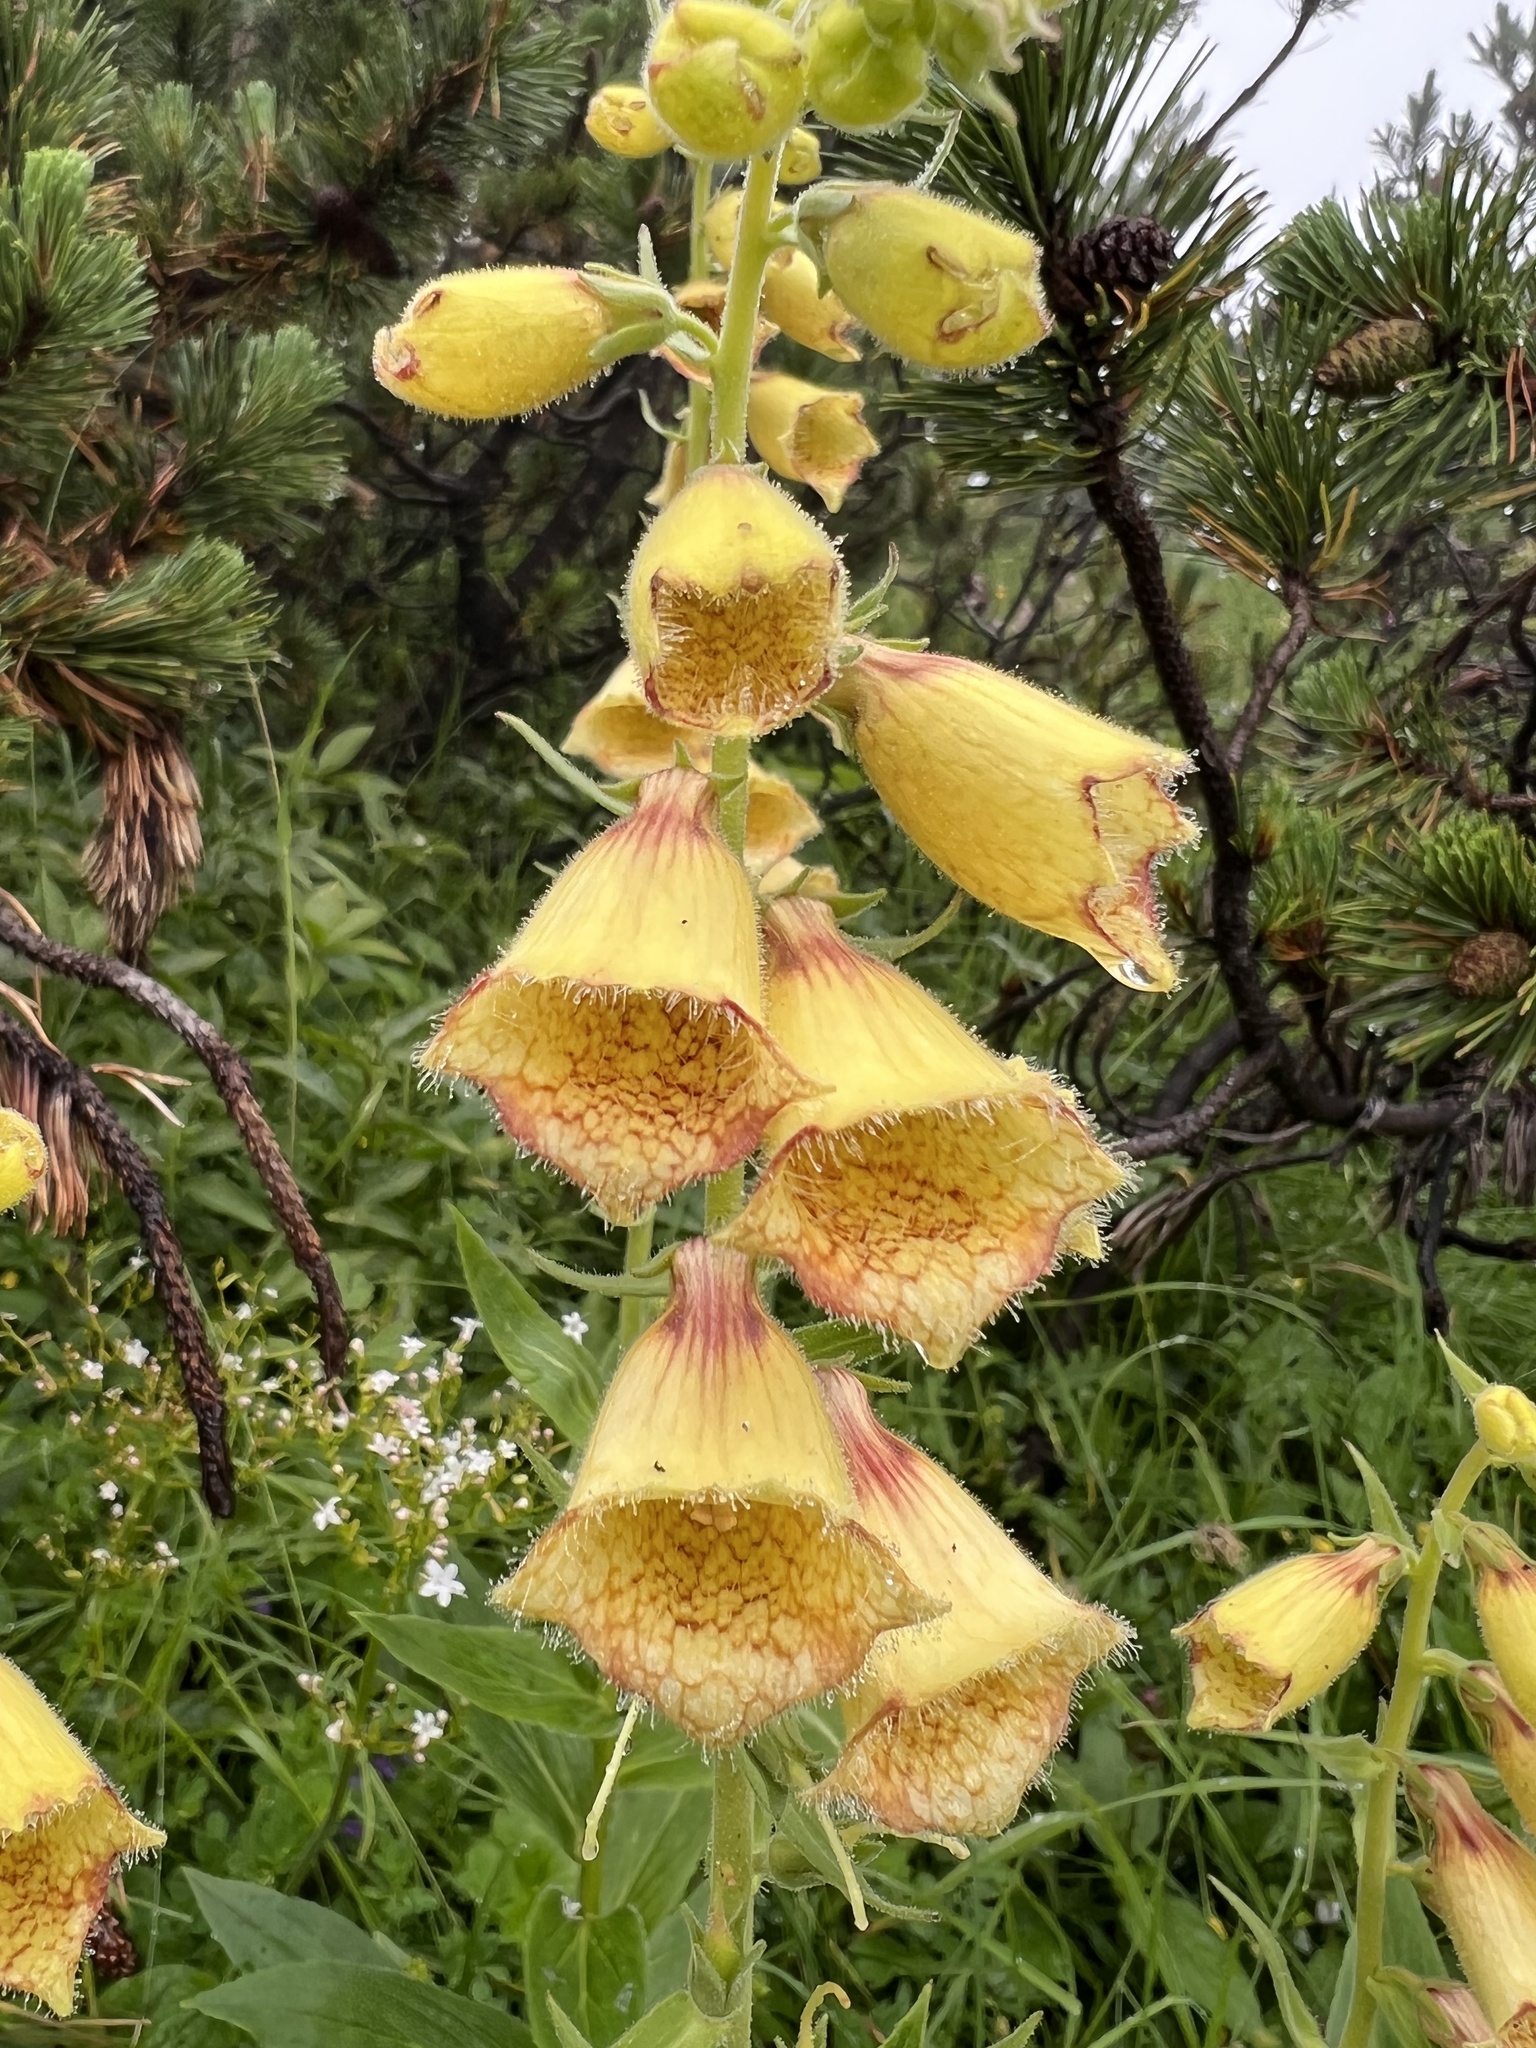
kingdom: Plantae
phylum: Tracheophyta
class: Magnoliopsida
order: Lamiales
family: Plantaginaceae
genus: Digitalis
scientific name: Digitalis grandiflora
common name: Yellow foxglove
